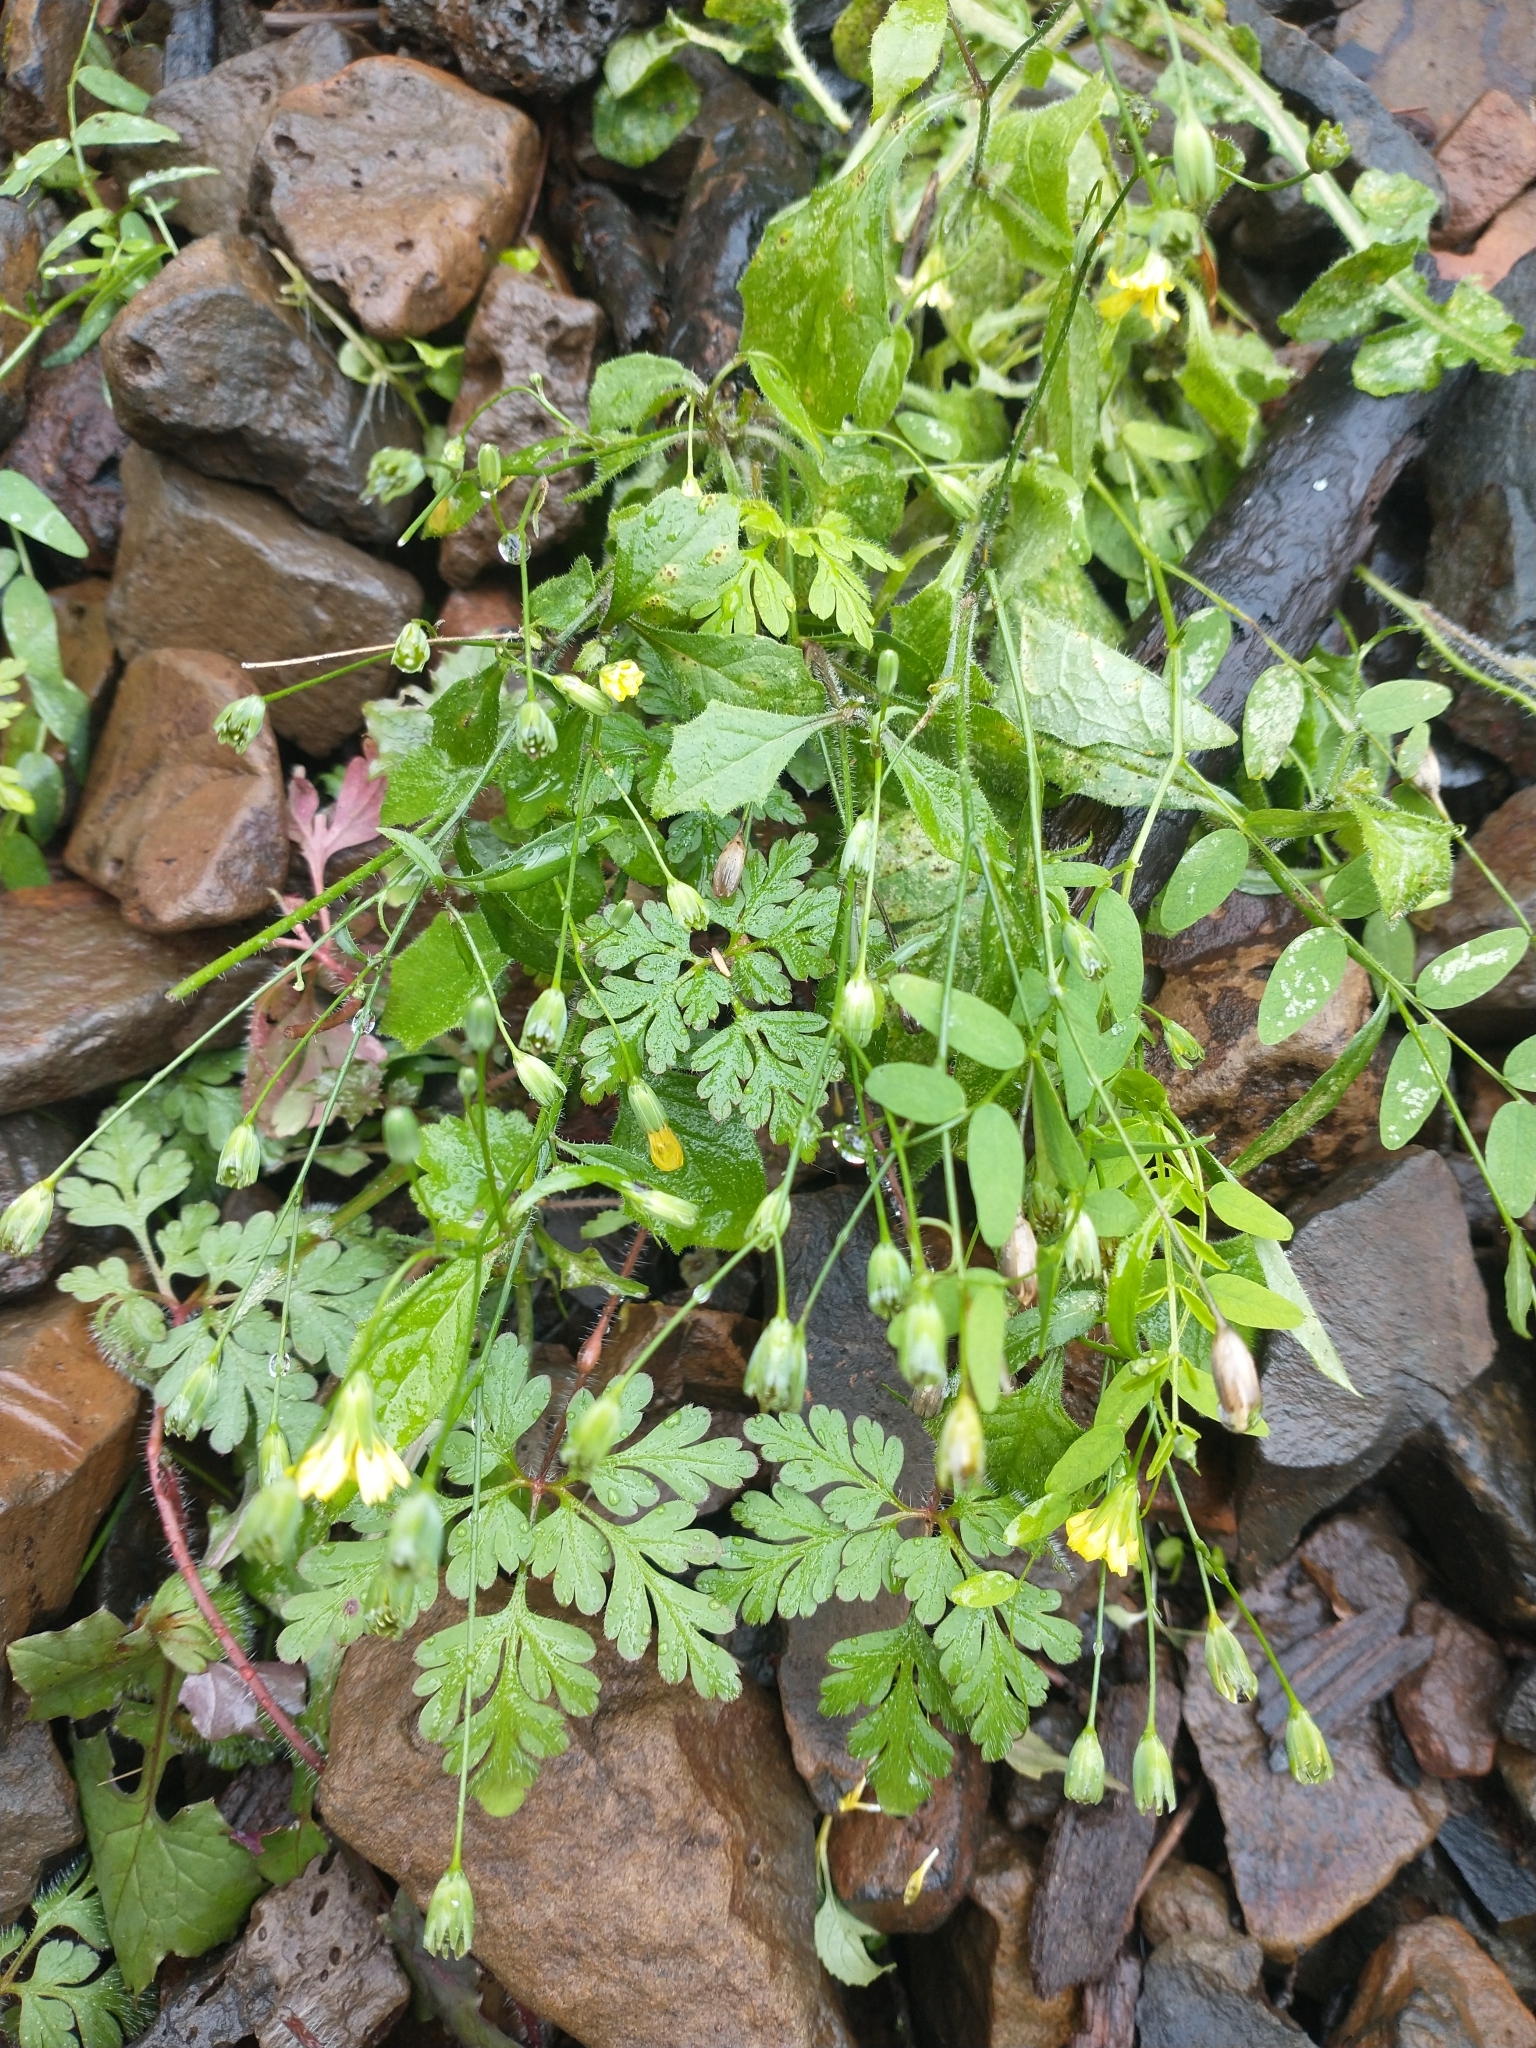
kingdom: Plantae
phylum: Tracheophyta
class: Magnoliopsida
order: Asterales
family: Asteraceae
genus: Lapsana
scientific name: Lapsana communis
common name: Nipplewort
